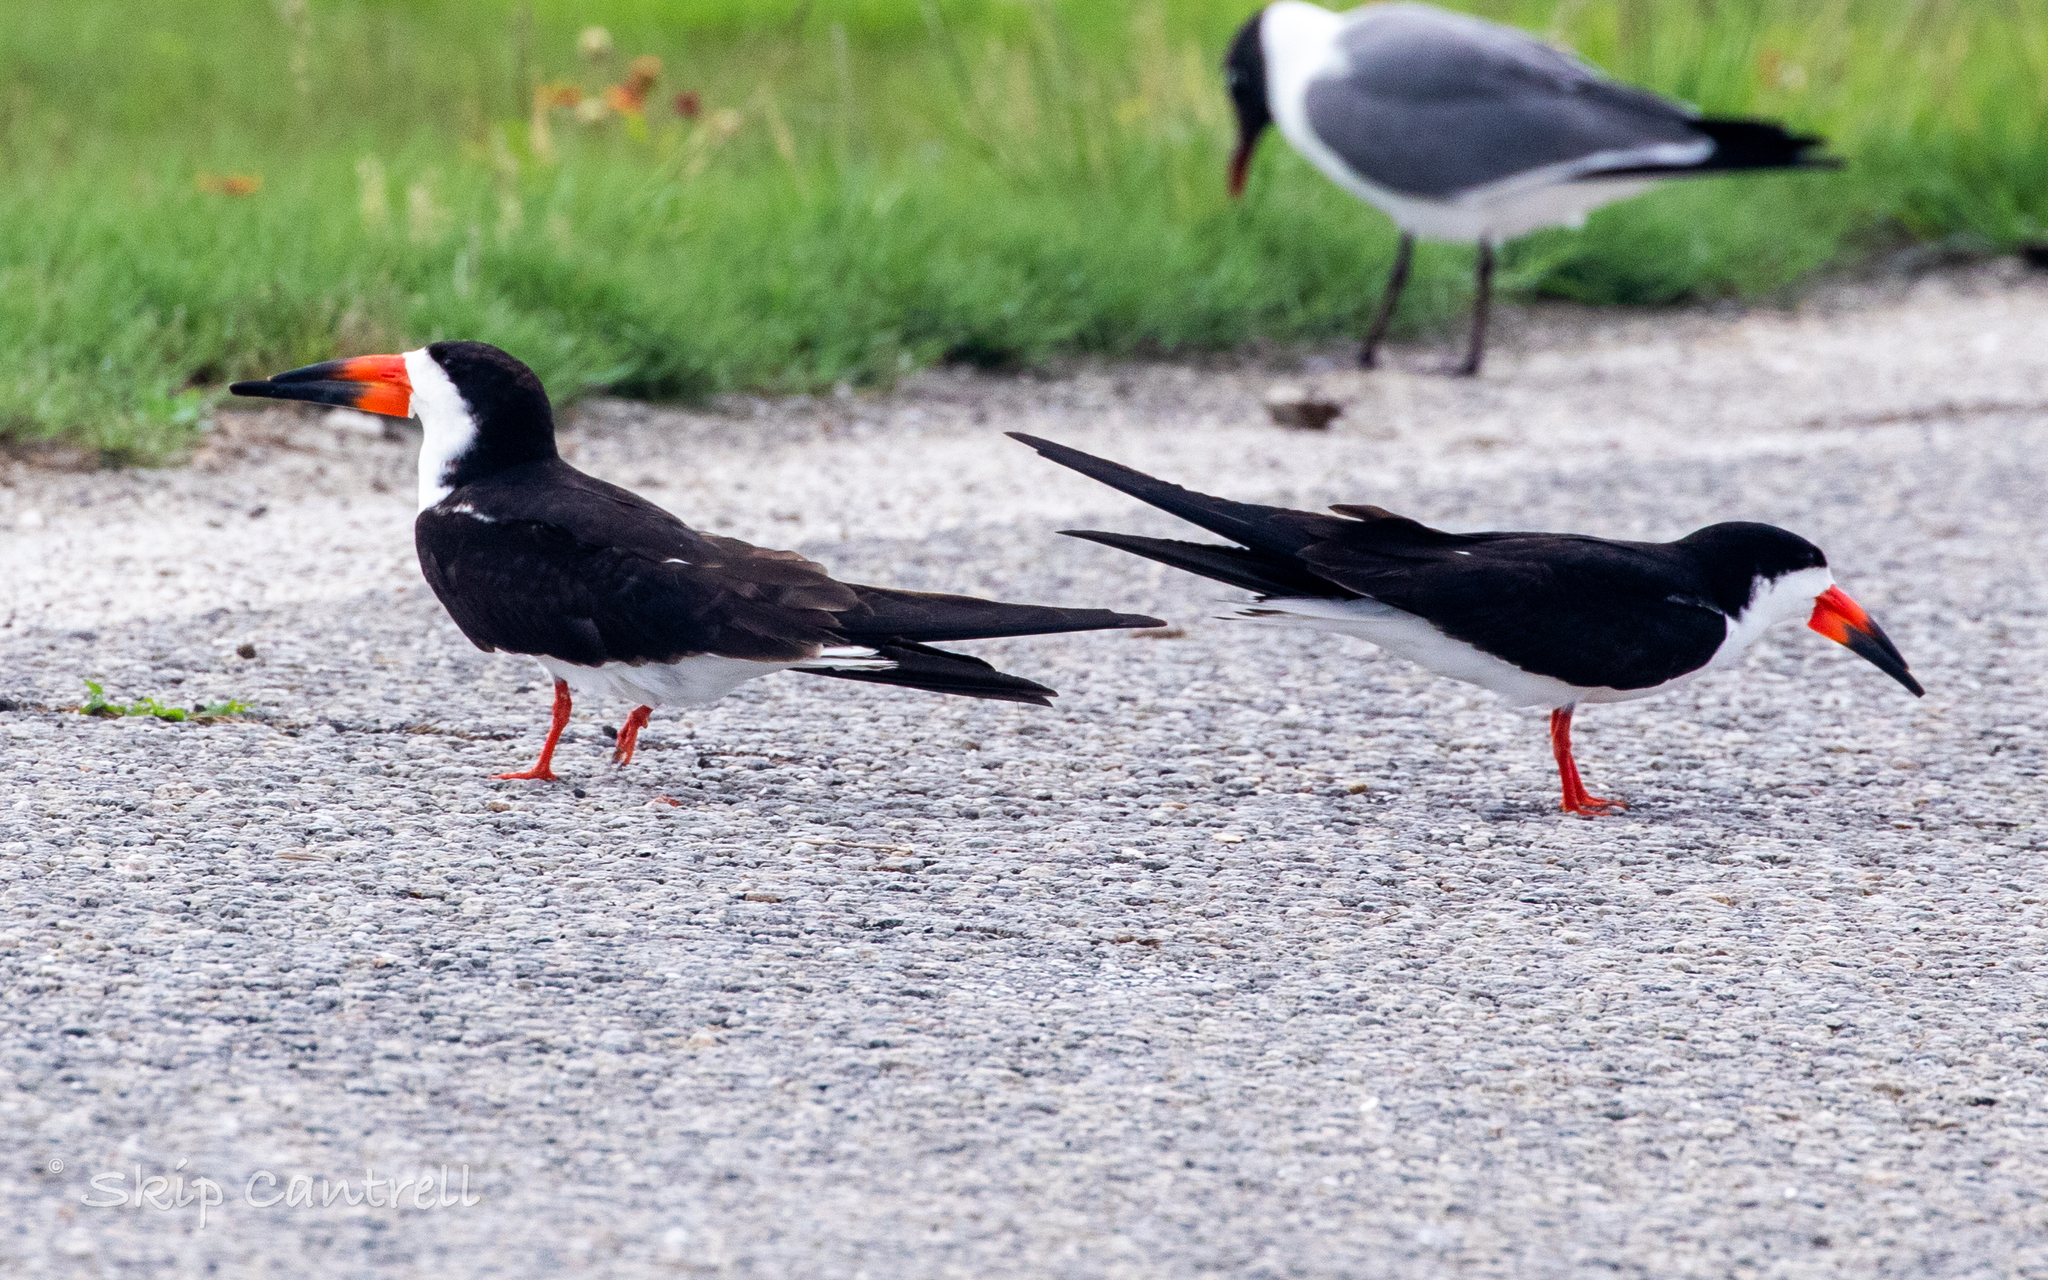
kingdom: Animalia
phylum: Chordata
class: Aves
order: Charadriiformes
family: Laridae
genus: Rynchops
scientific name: Rynchops niger
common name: Black skimmer
